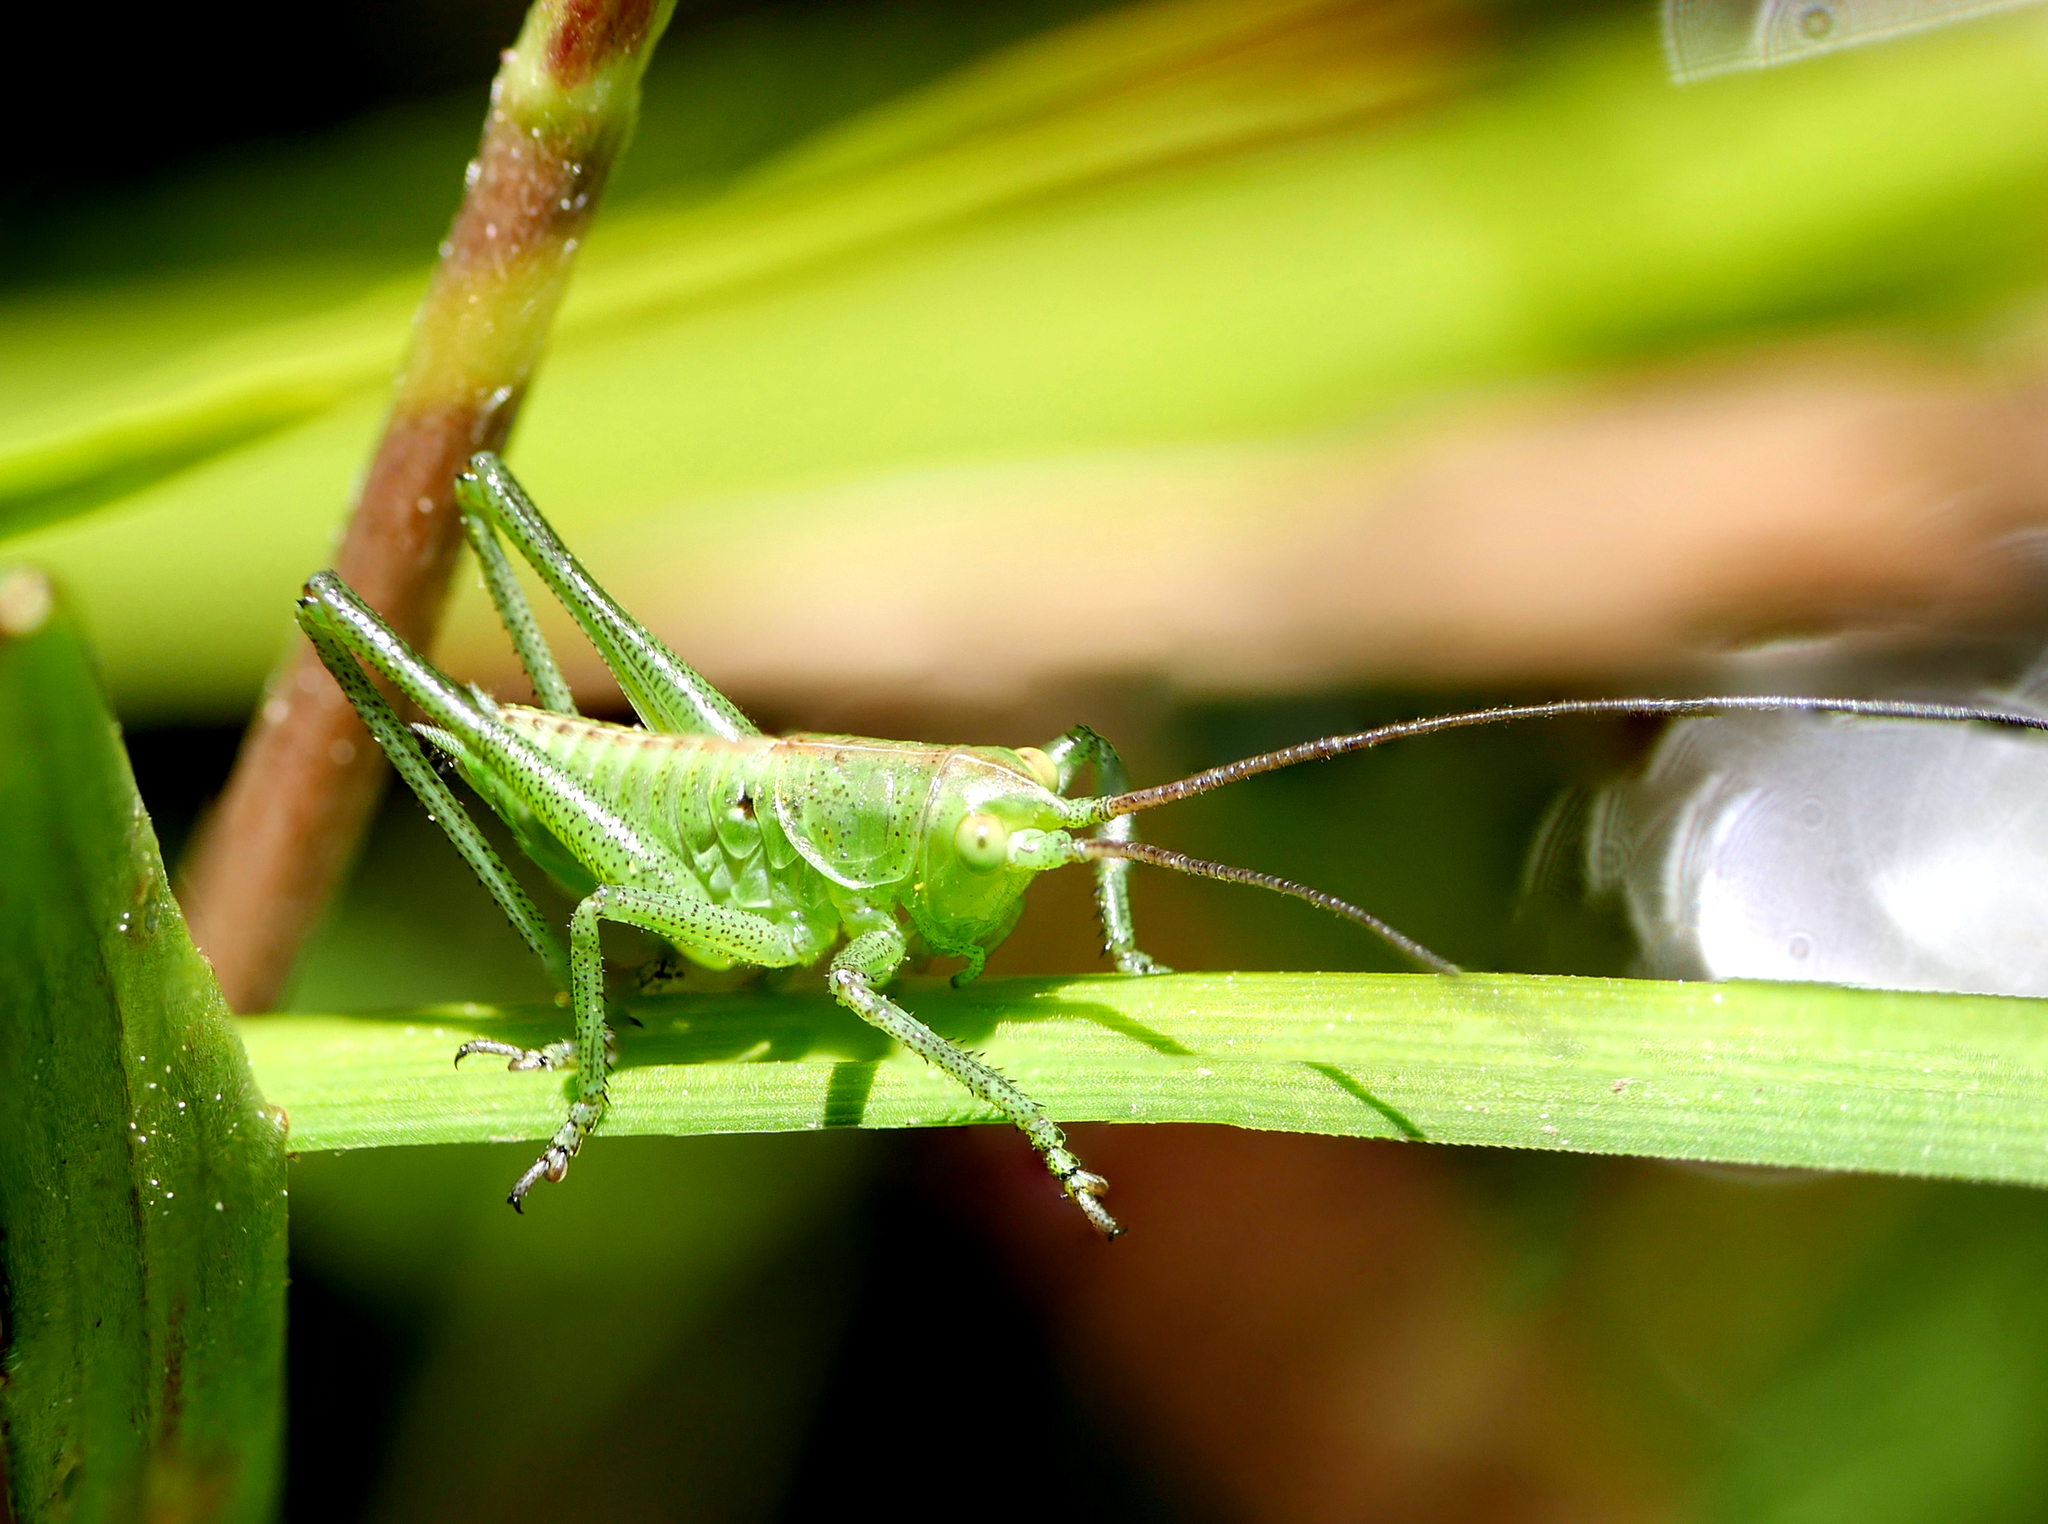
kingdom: Animalia
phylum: Arthropoda
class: Insecta
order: Orthoptera
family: Tettigoniidae
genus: Tettigonia
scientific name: Tettigonia viridissima
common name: Great green bush-cricket
